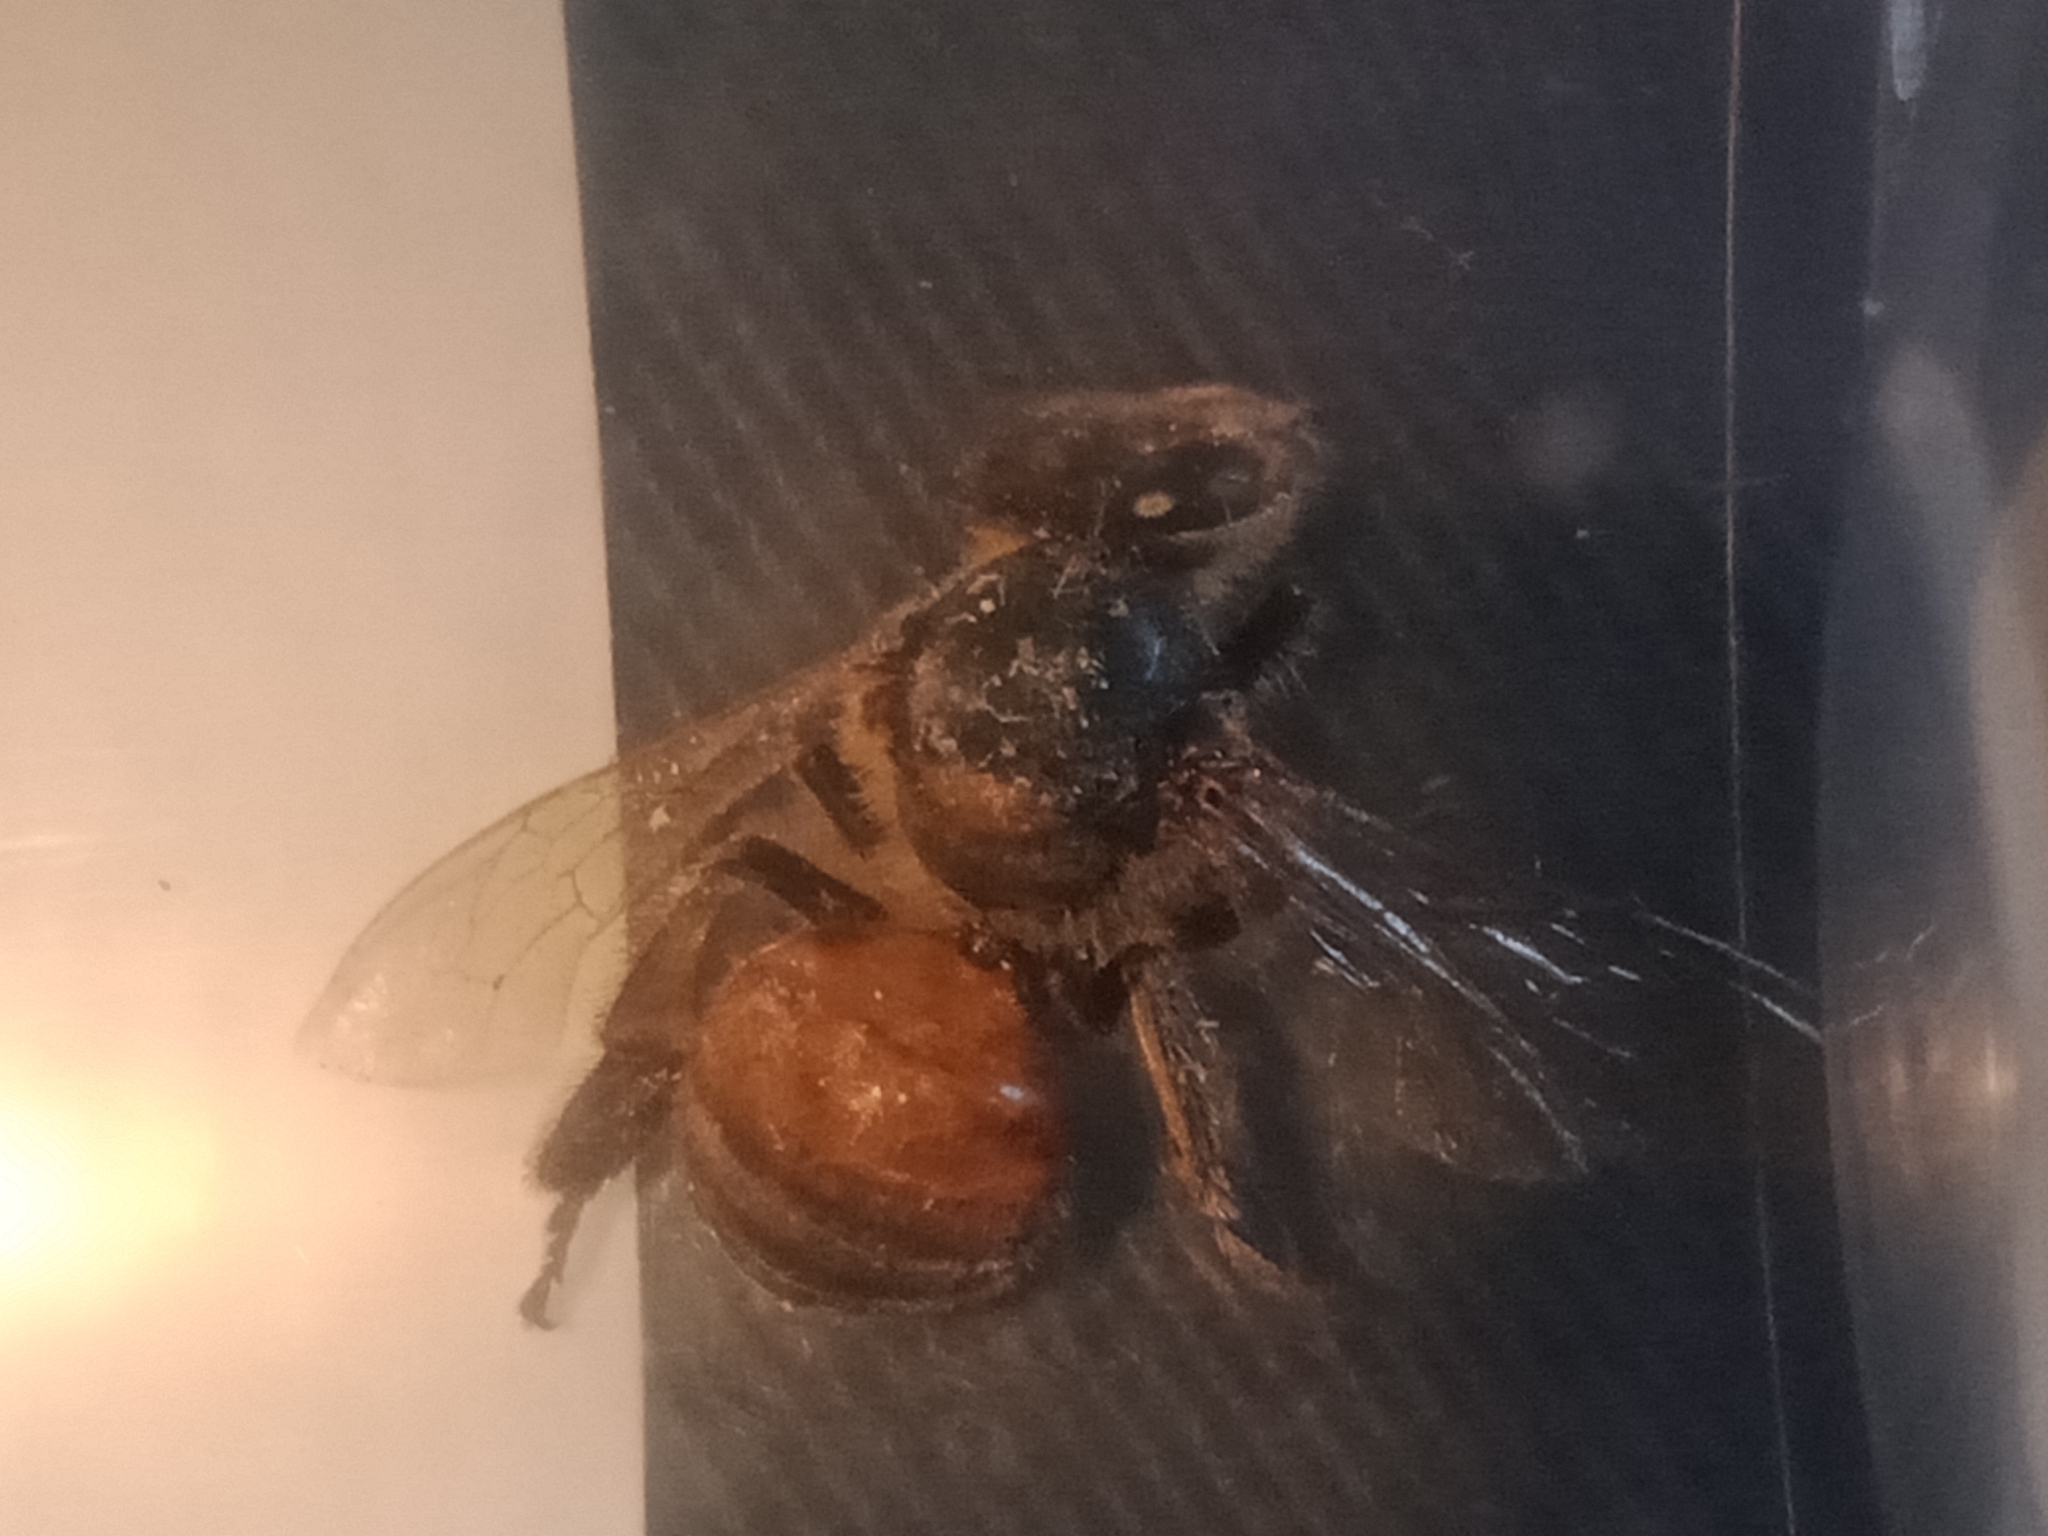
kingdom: Animalia
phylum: Arthropoda
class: Insecta
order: Hymenoptera
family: Apidae
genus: Apis
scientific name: Apis mellifera
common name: Honey bee
